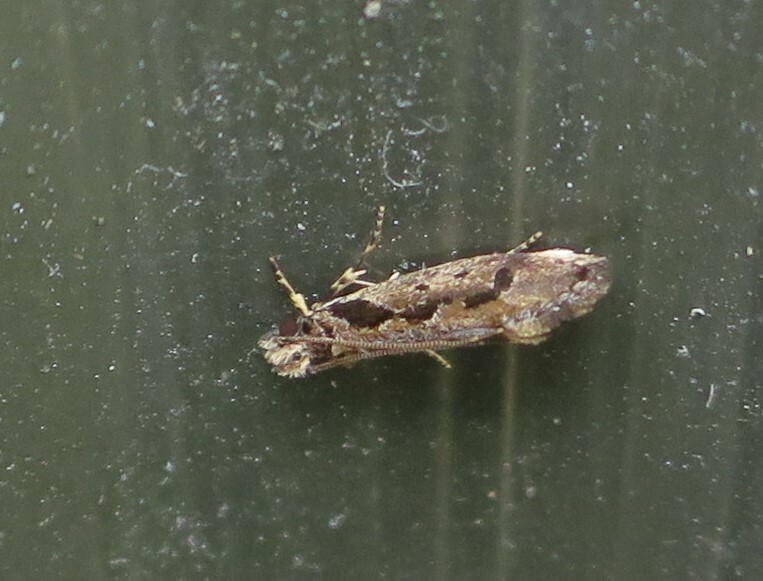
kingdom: Animalia
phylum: Arthropoda
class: Insecta
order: Lepidoptera
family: Tineidae
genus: Erechthias
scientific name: Erechthias capnitis
